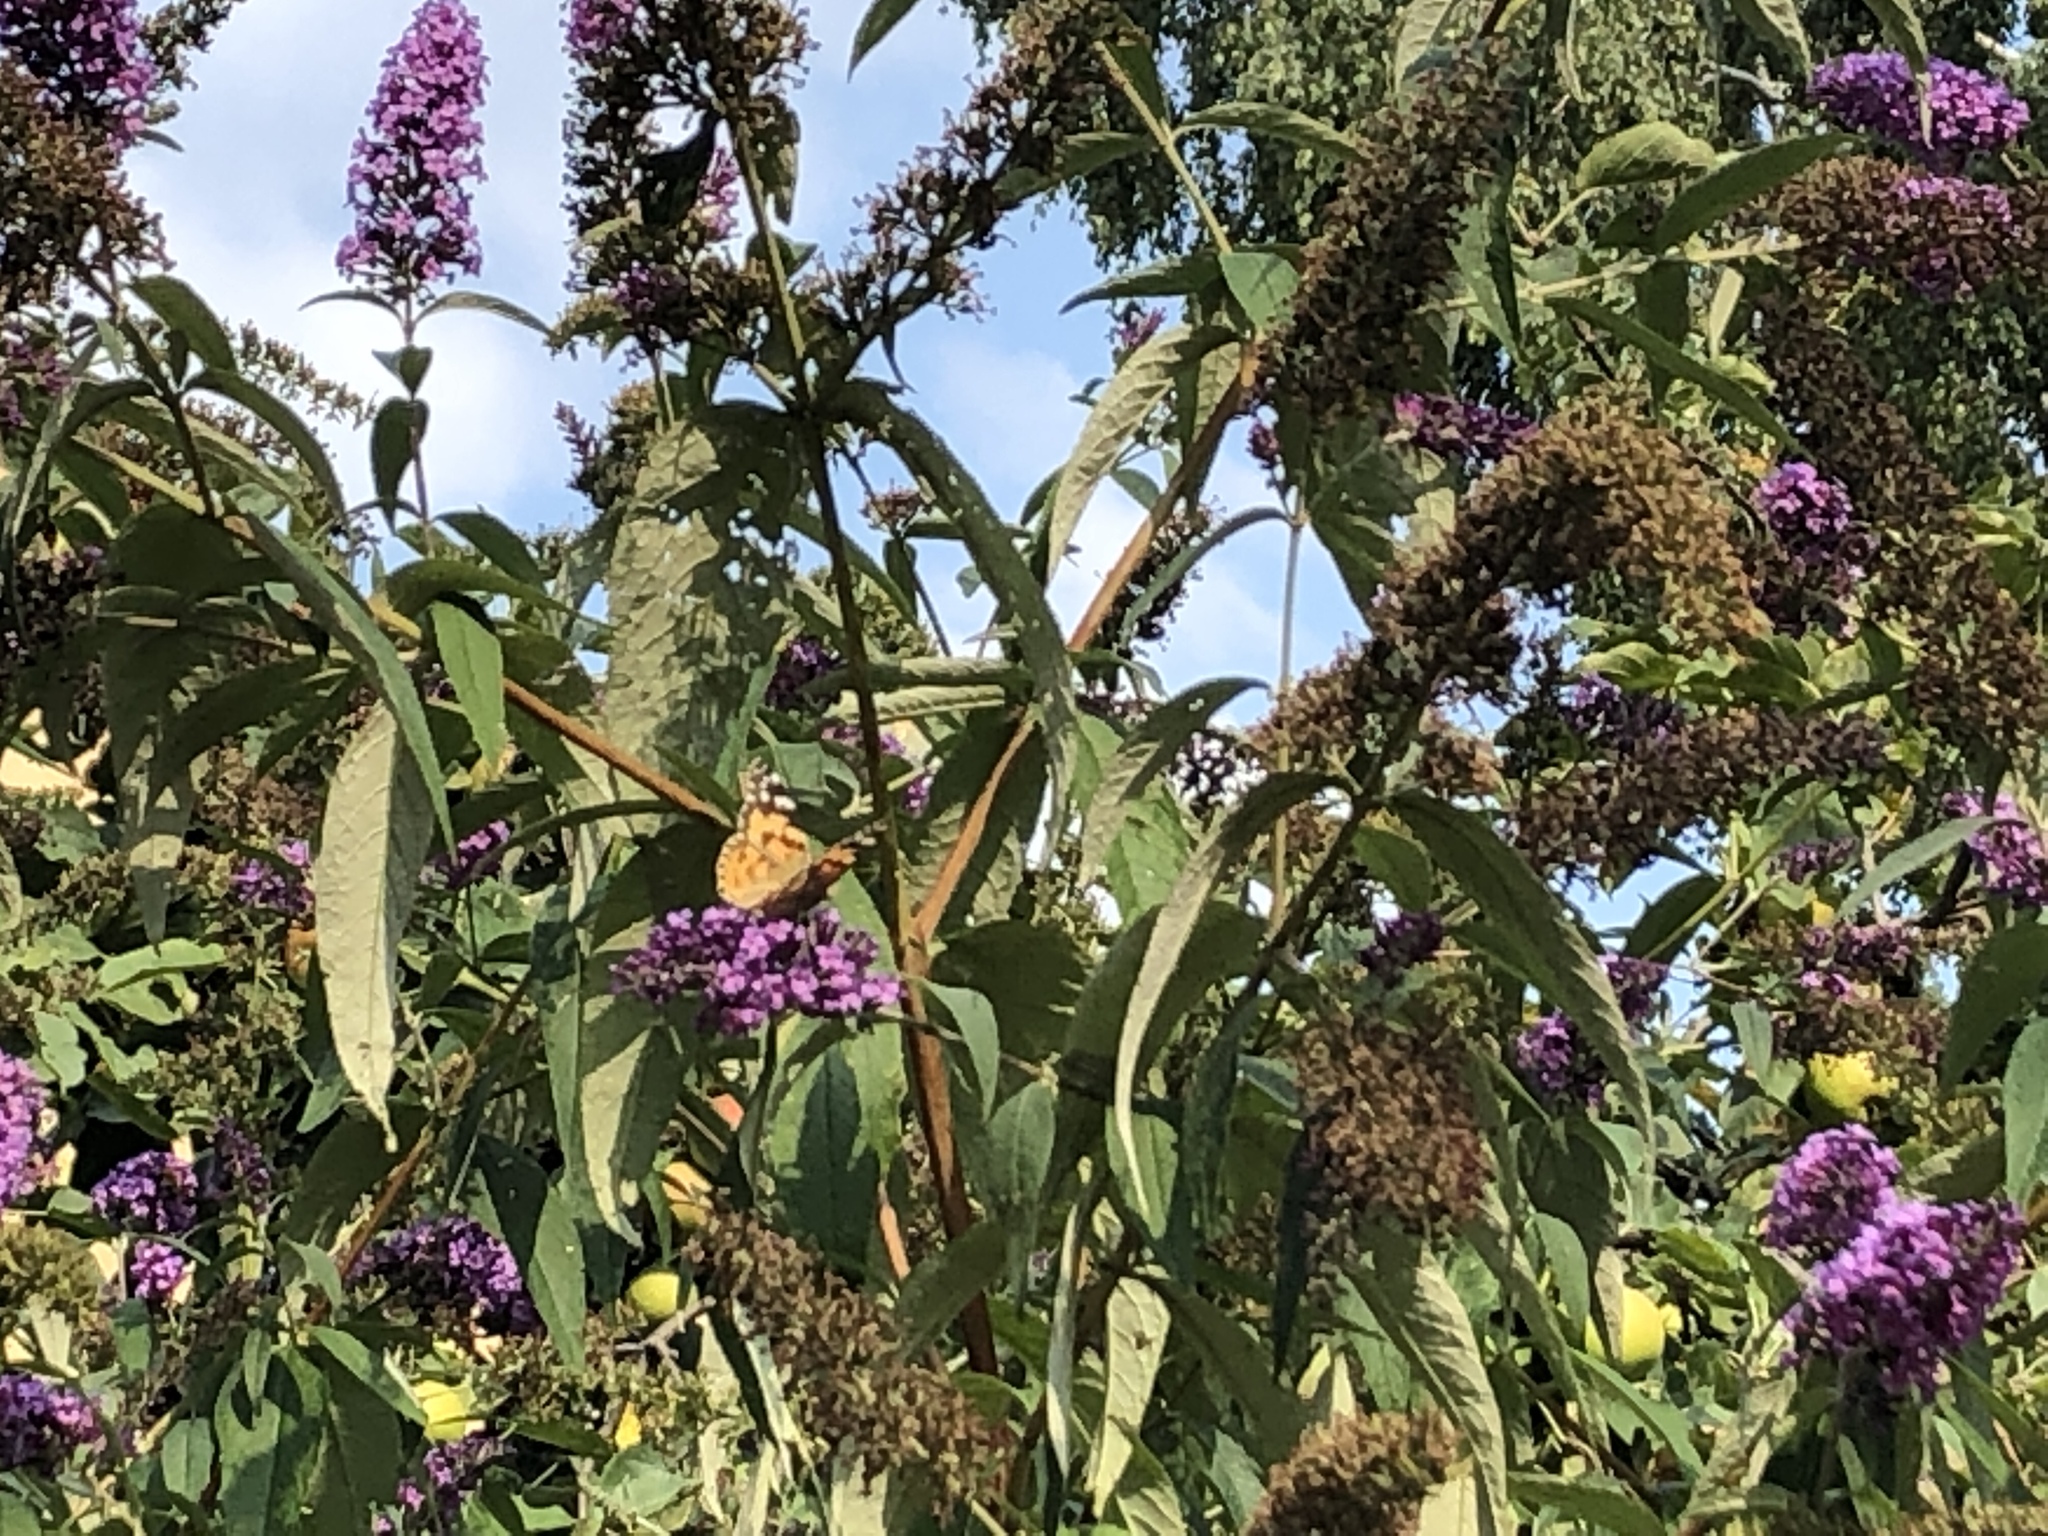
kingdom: Animalia
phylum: Arthropoda
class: Insecta
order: Lepidoptera
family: Nymphalidae
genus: Vanessa
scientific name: Vanessa cardui
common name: Painted lady
